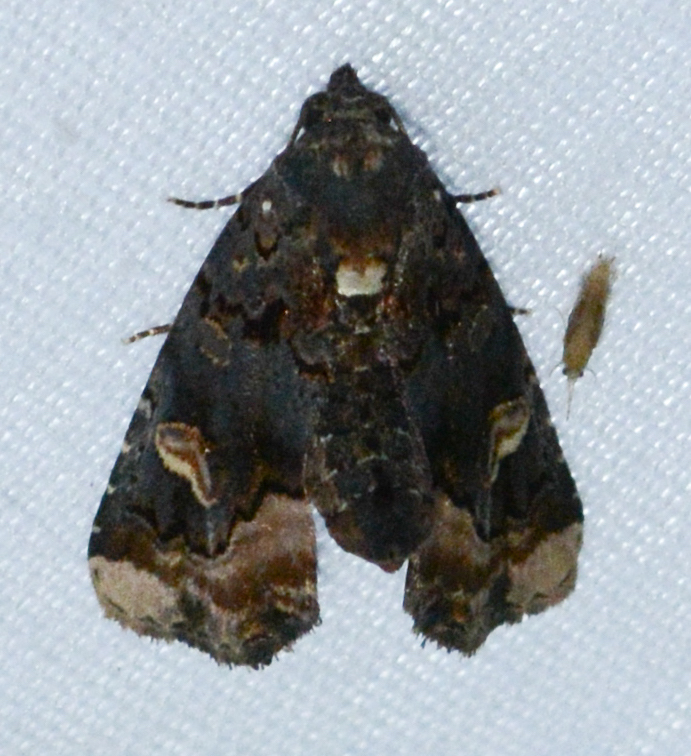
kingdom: Animalia
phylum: Arthropoda
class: Insecta
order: Lepidoptera
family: Noctuidae
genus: Homophoberia
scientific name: Homophoberia apicosa
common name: Black wedge-spot
